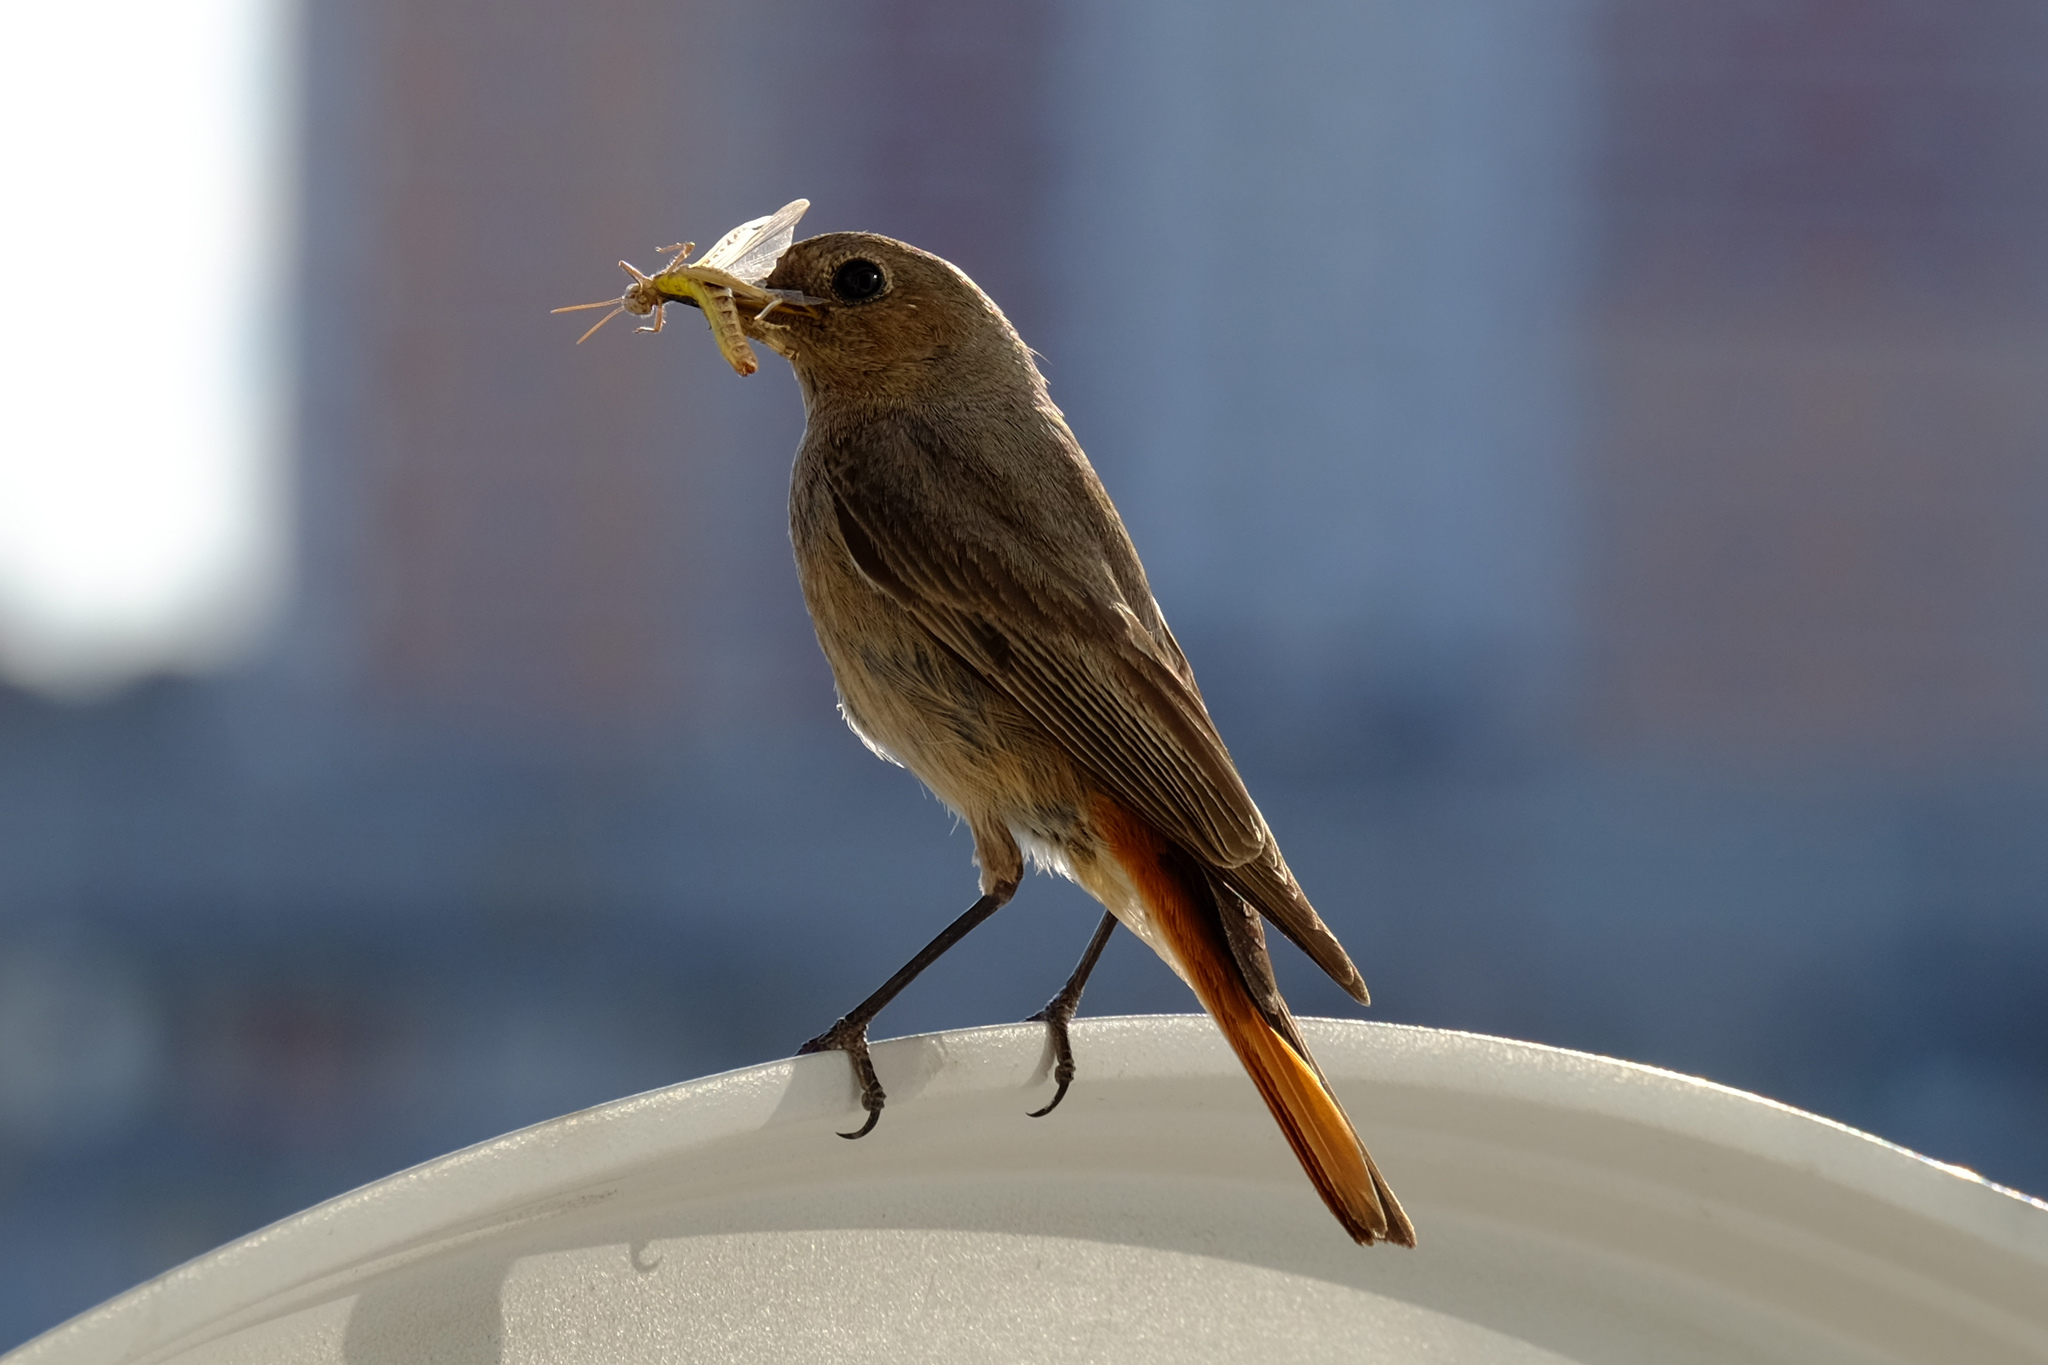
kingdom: Animalia
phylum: Chordata
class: Aves
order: Passeriformes
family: Muscicapidae
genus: Phoenicurus
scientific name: Phoenicurus ochruros
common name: Black redstart
